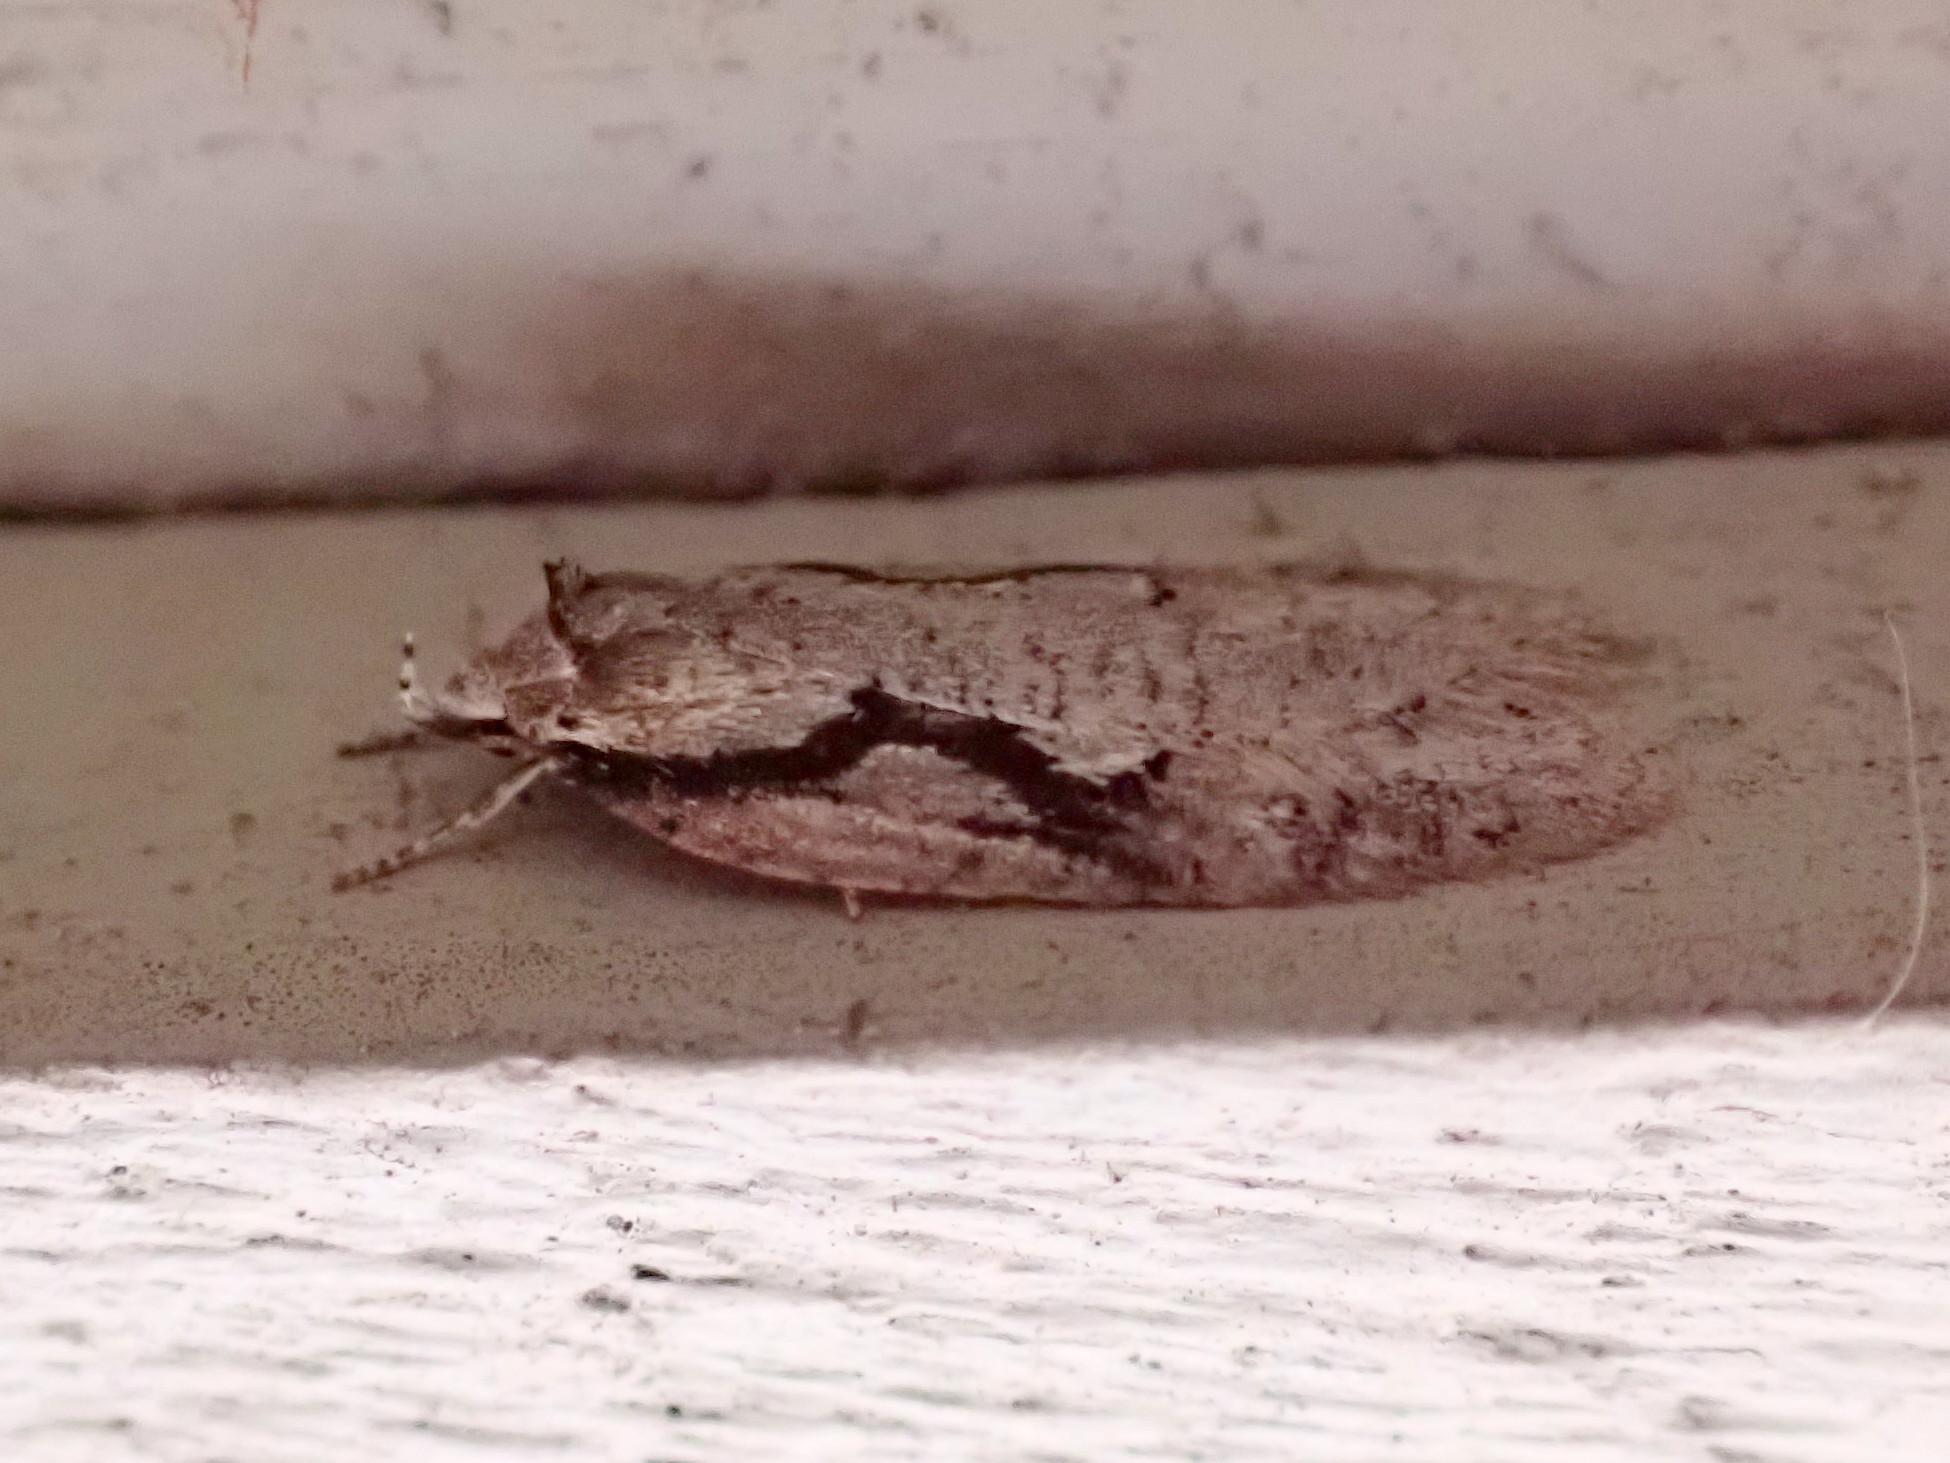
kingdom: Animalia
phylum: Arthropoda
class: Insecta
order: Lepidoptera
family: Depressariidae
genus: Semioscopis
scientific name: Semioscopis packardella
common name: Packard's concealer moth
